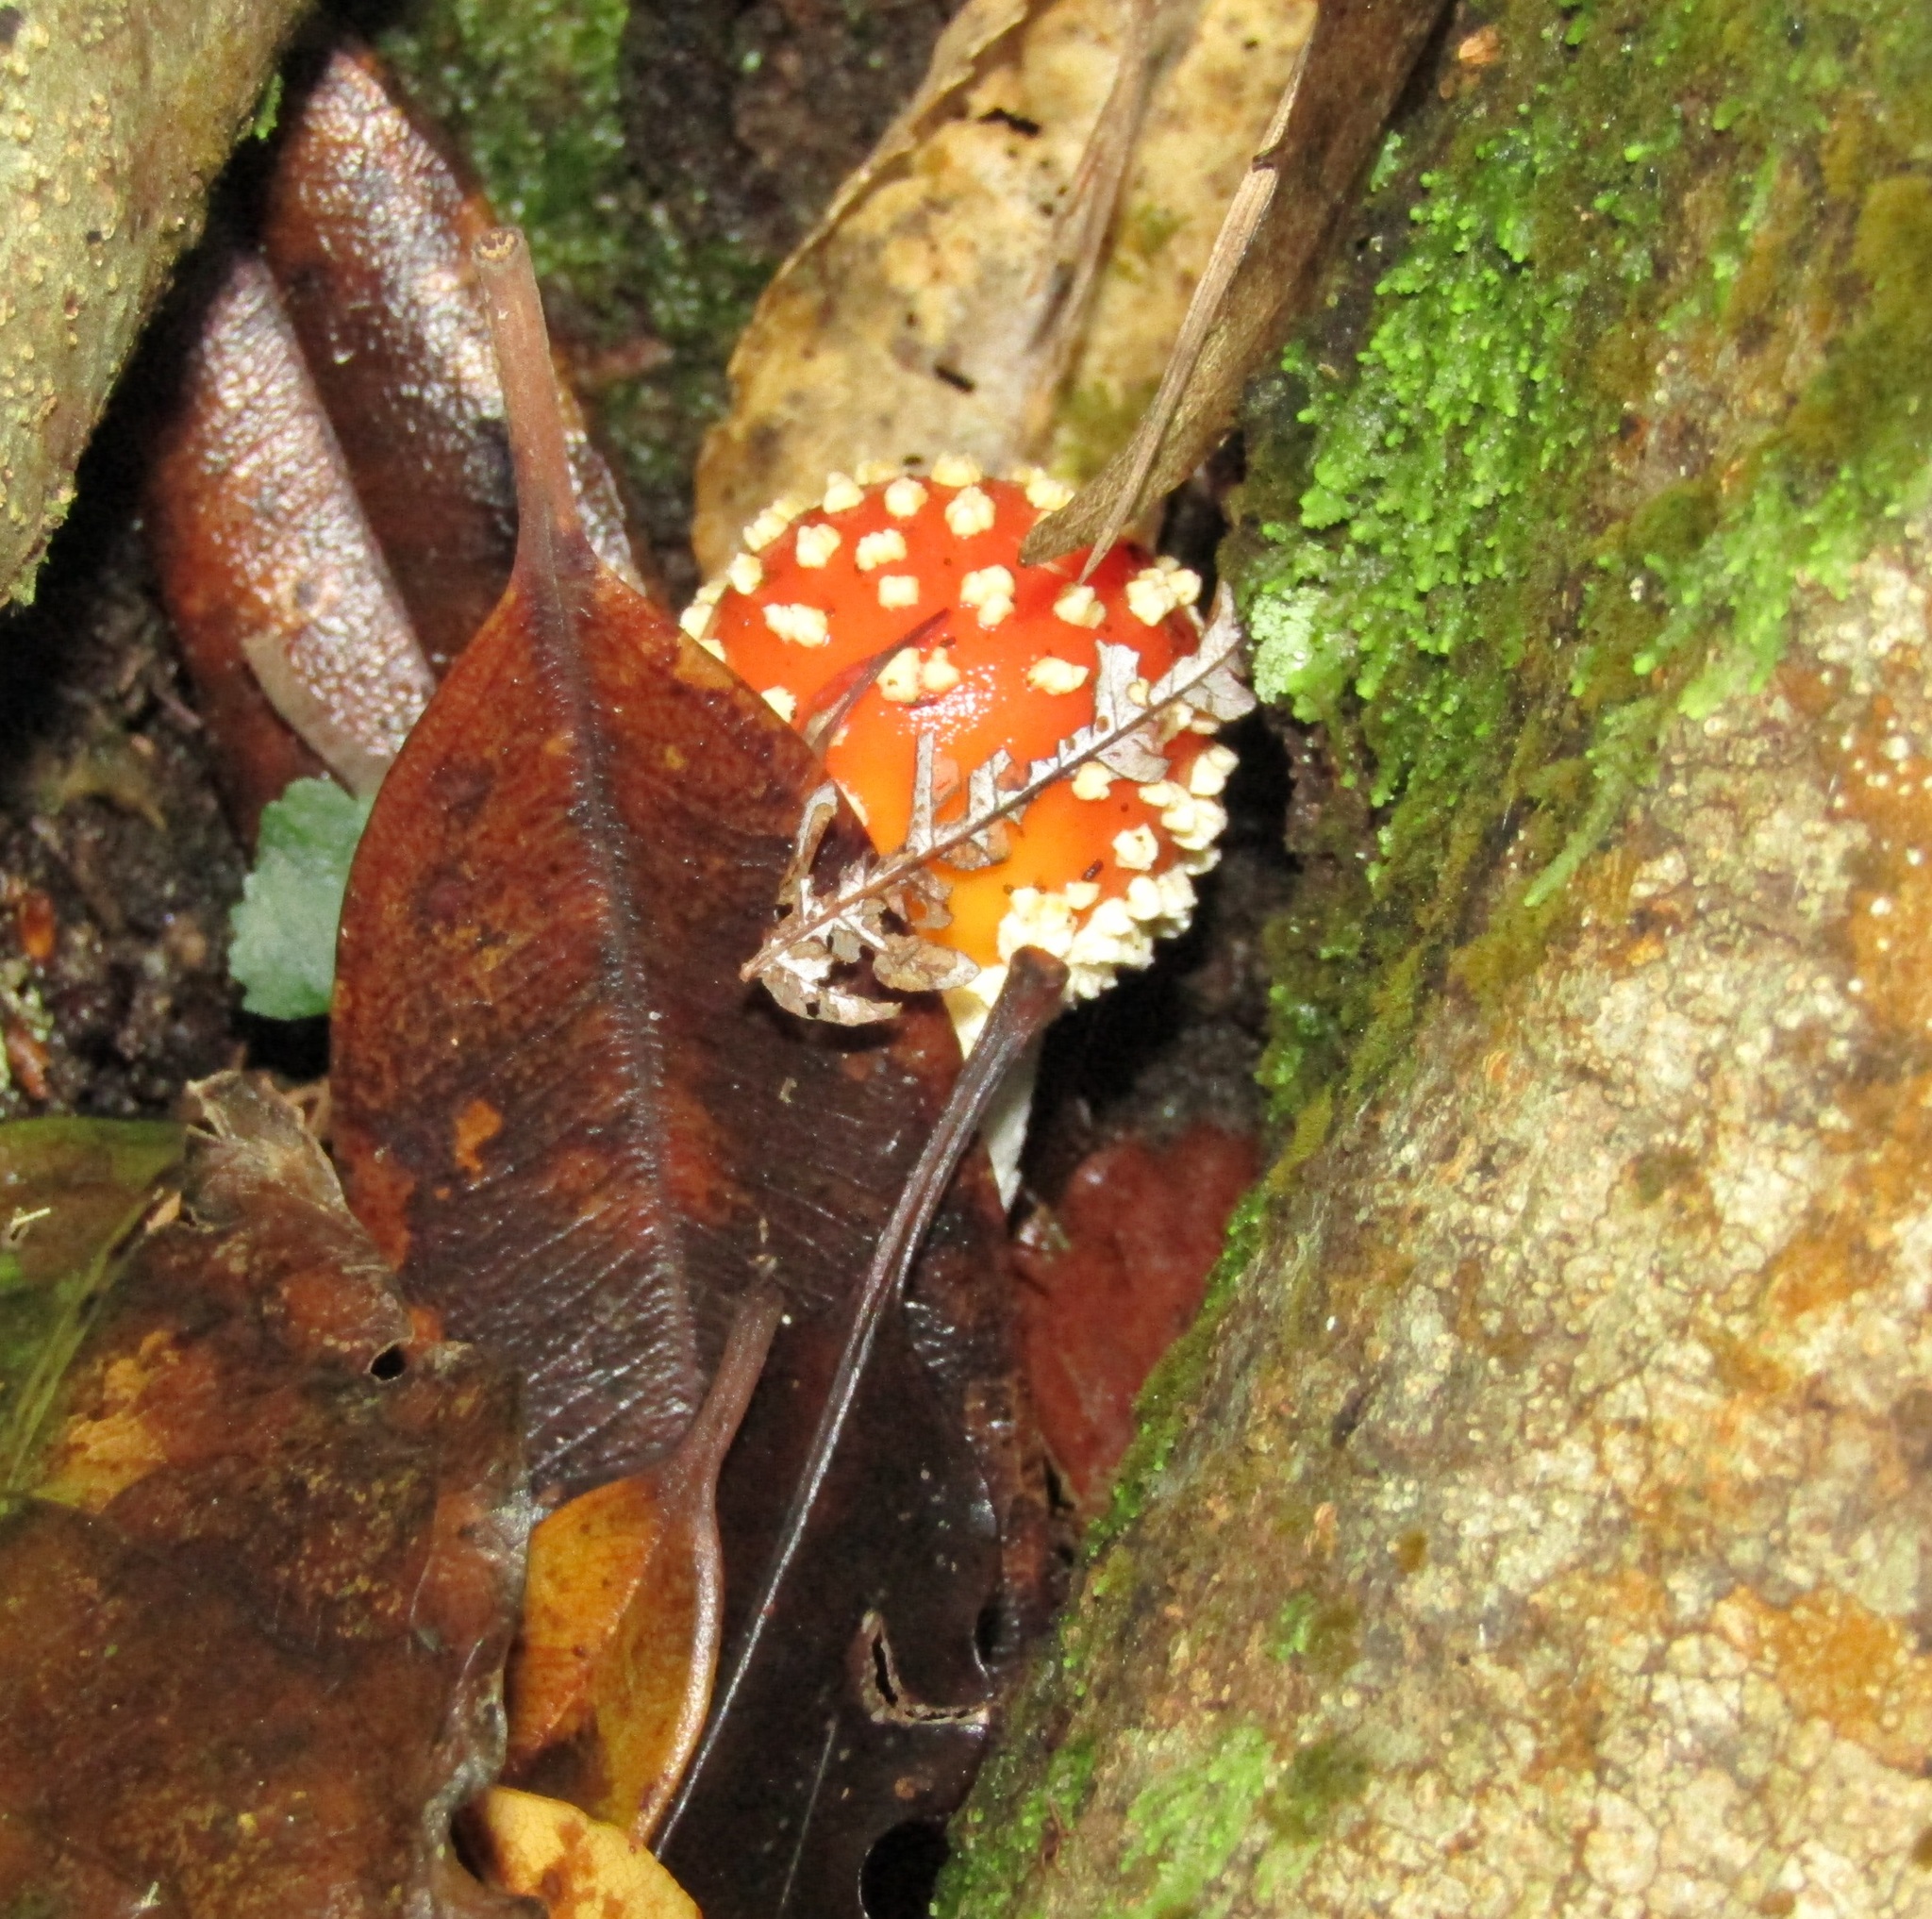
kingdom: Fungi
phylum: Basidiomycota
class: Agaricomycetes
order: Agaricales
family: Amanitaceae
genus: Amanita
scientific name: Amanita muscaria
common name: Fly agaric
